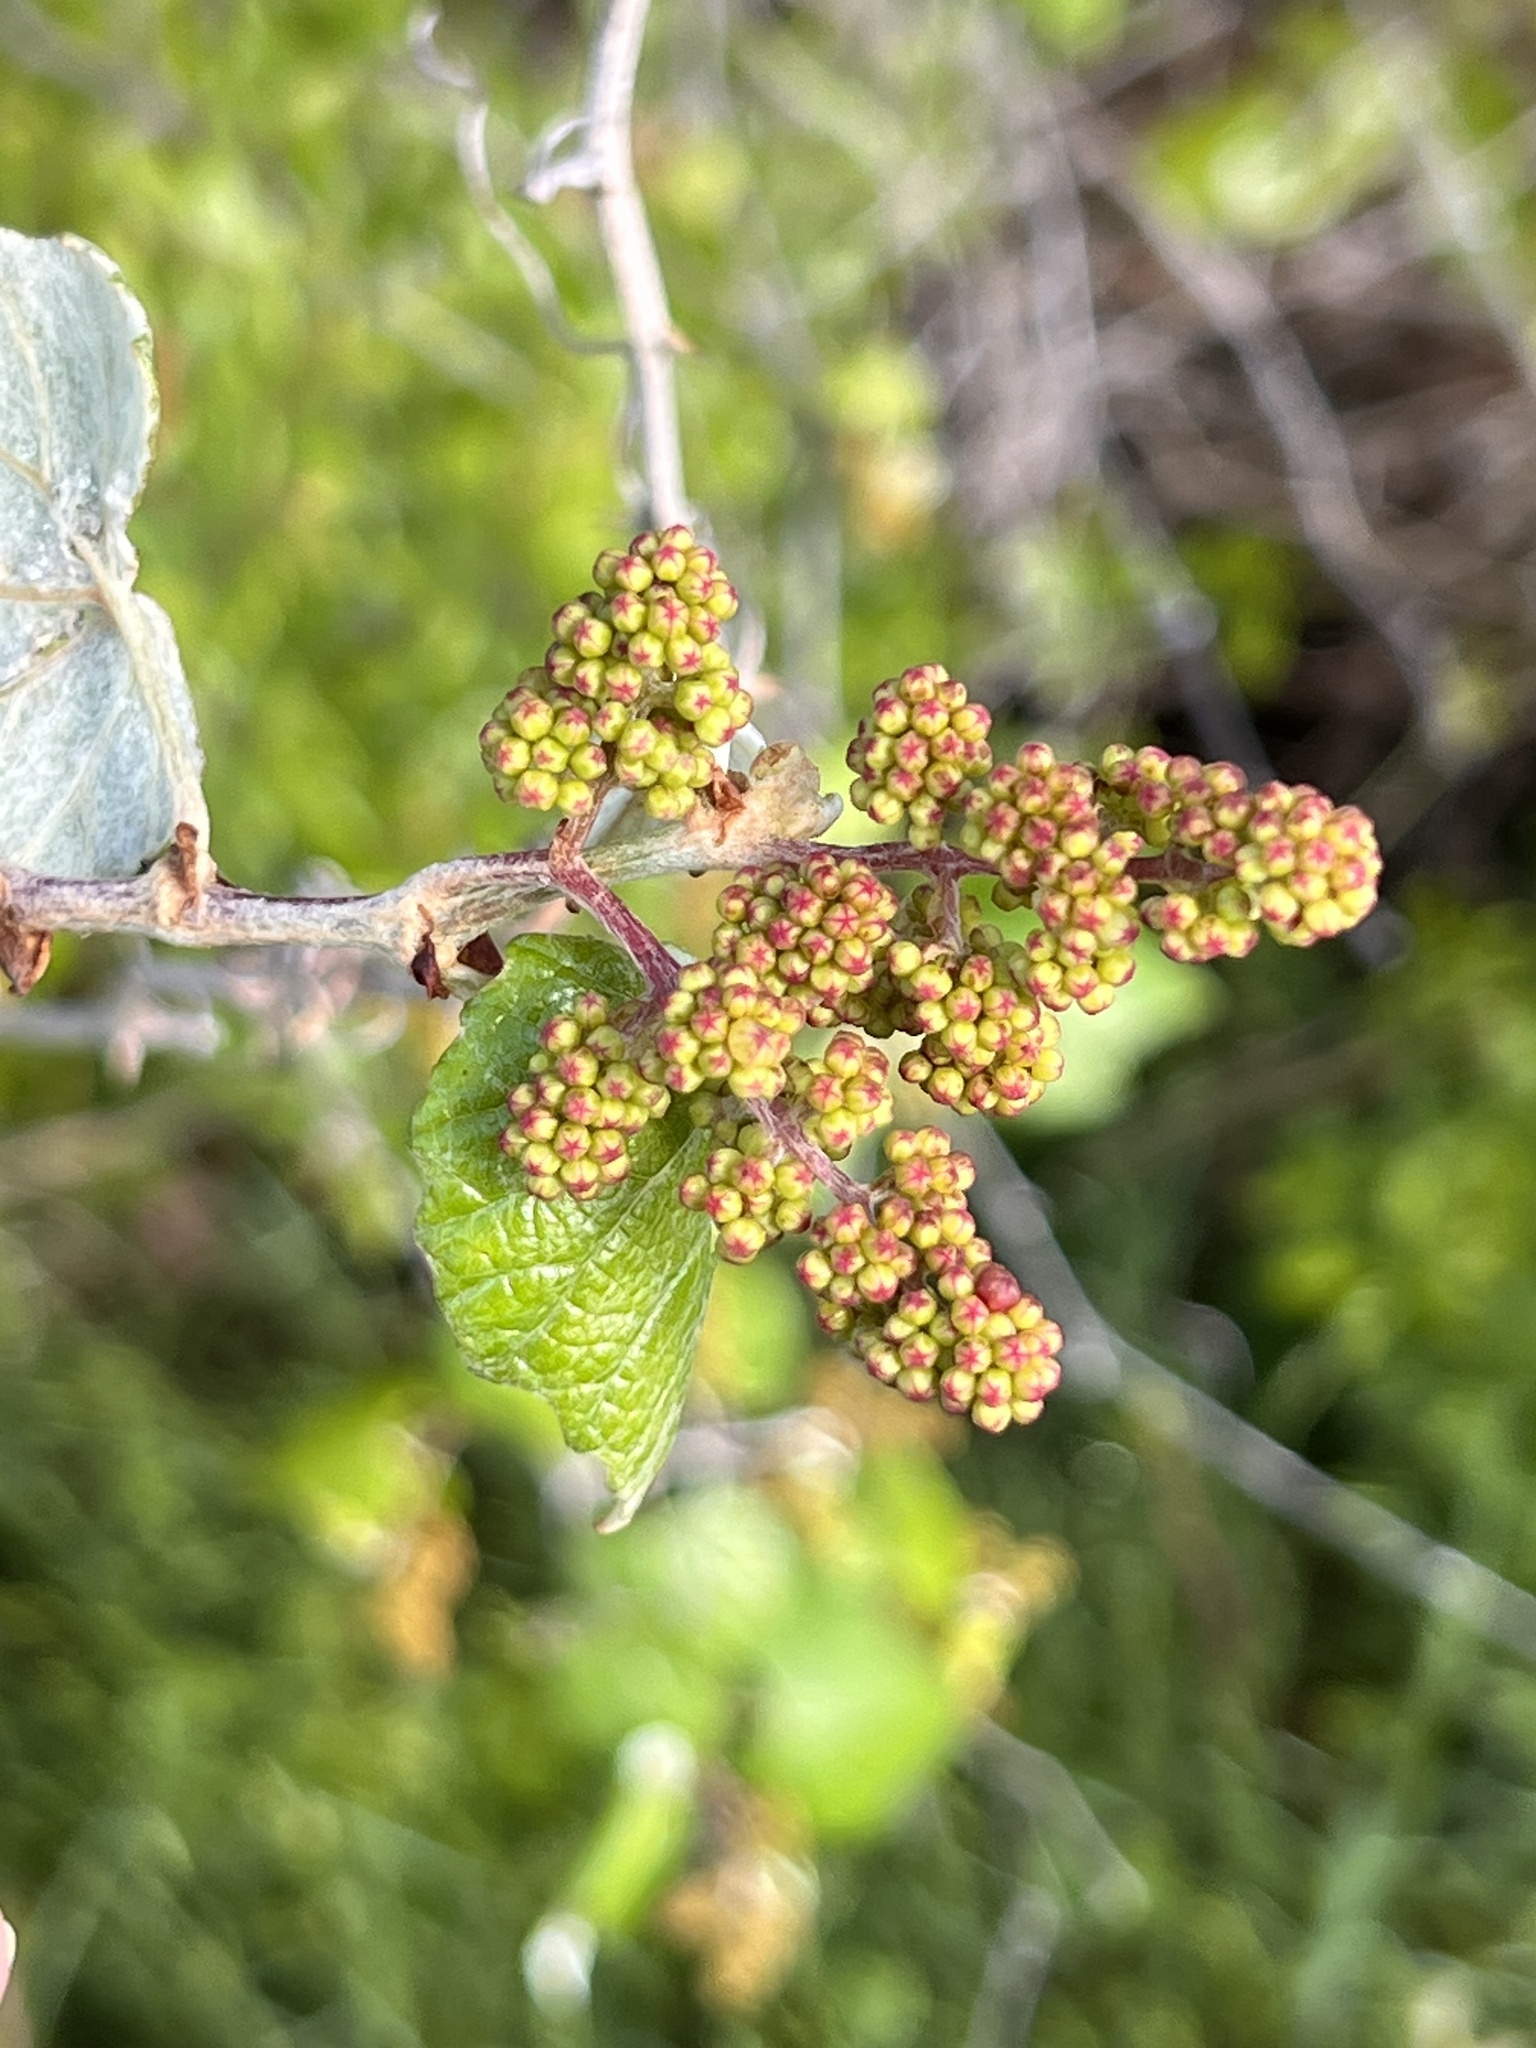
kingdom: Plantae
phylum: Tracheophyta
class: Magnoliopsida
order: Vitales
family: Vitaceae
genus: Vitis
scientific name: Vitis mustangensis
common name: Mustang grape
